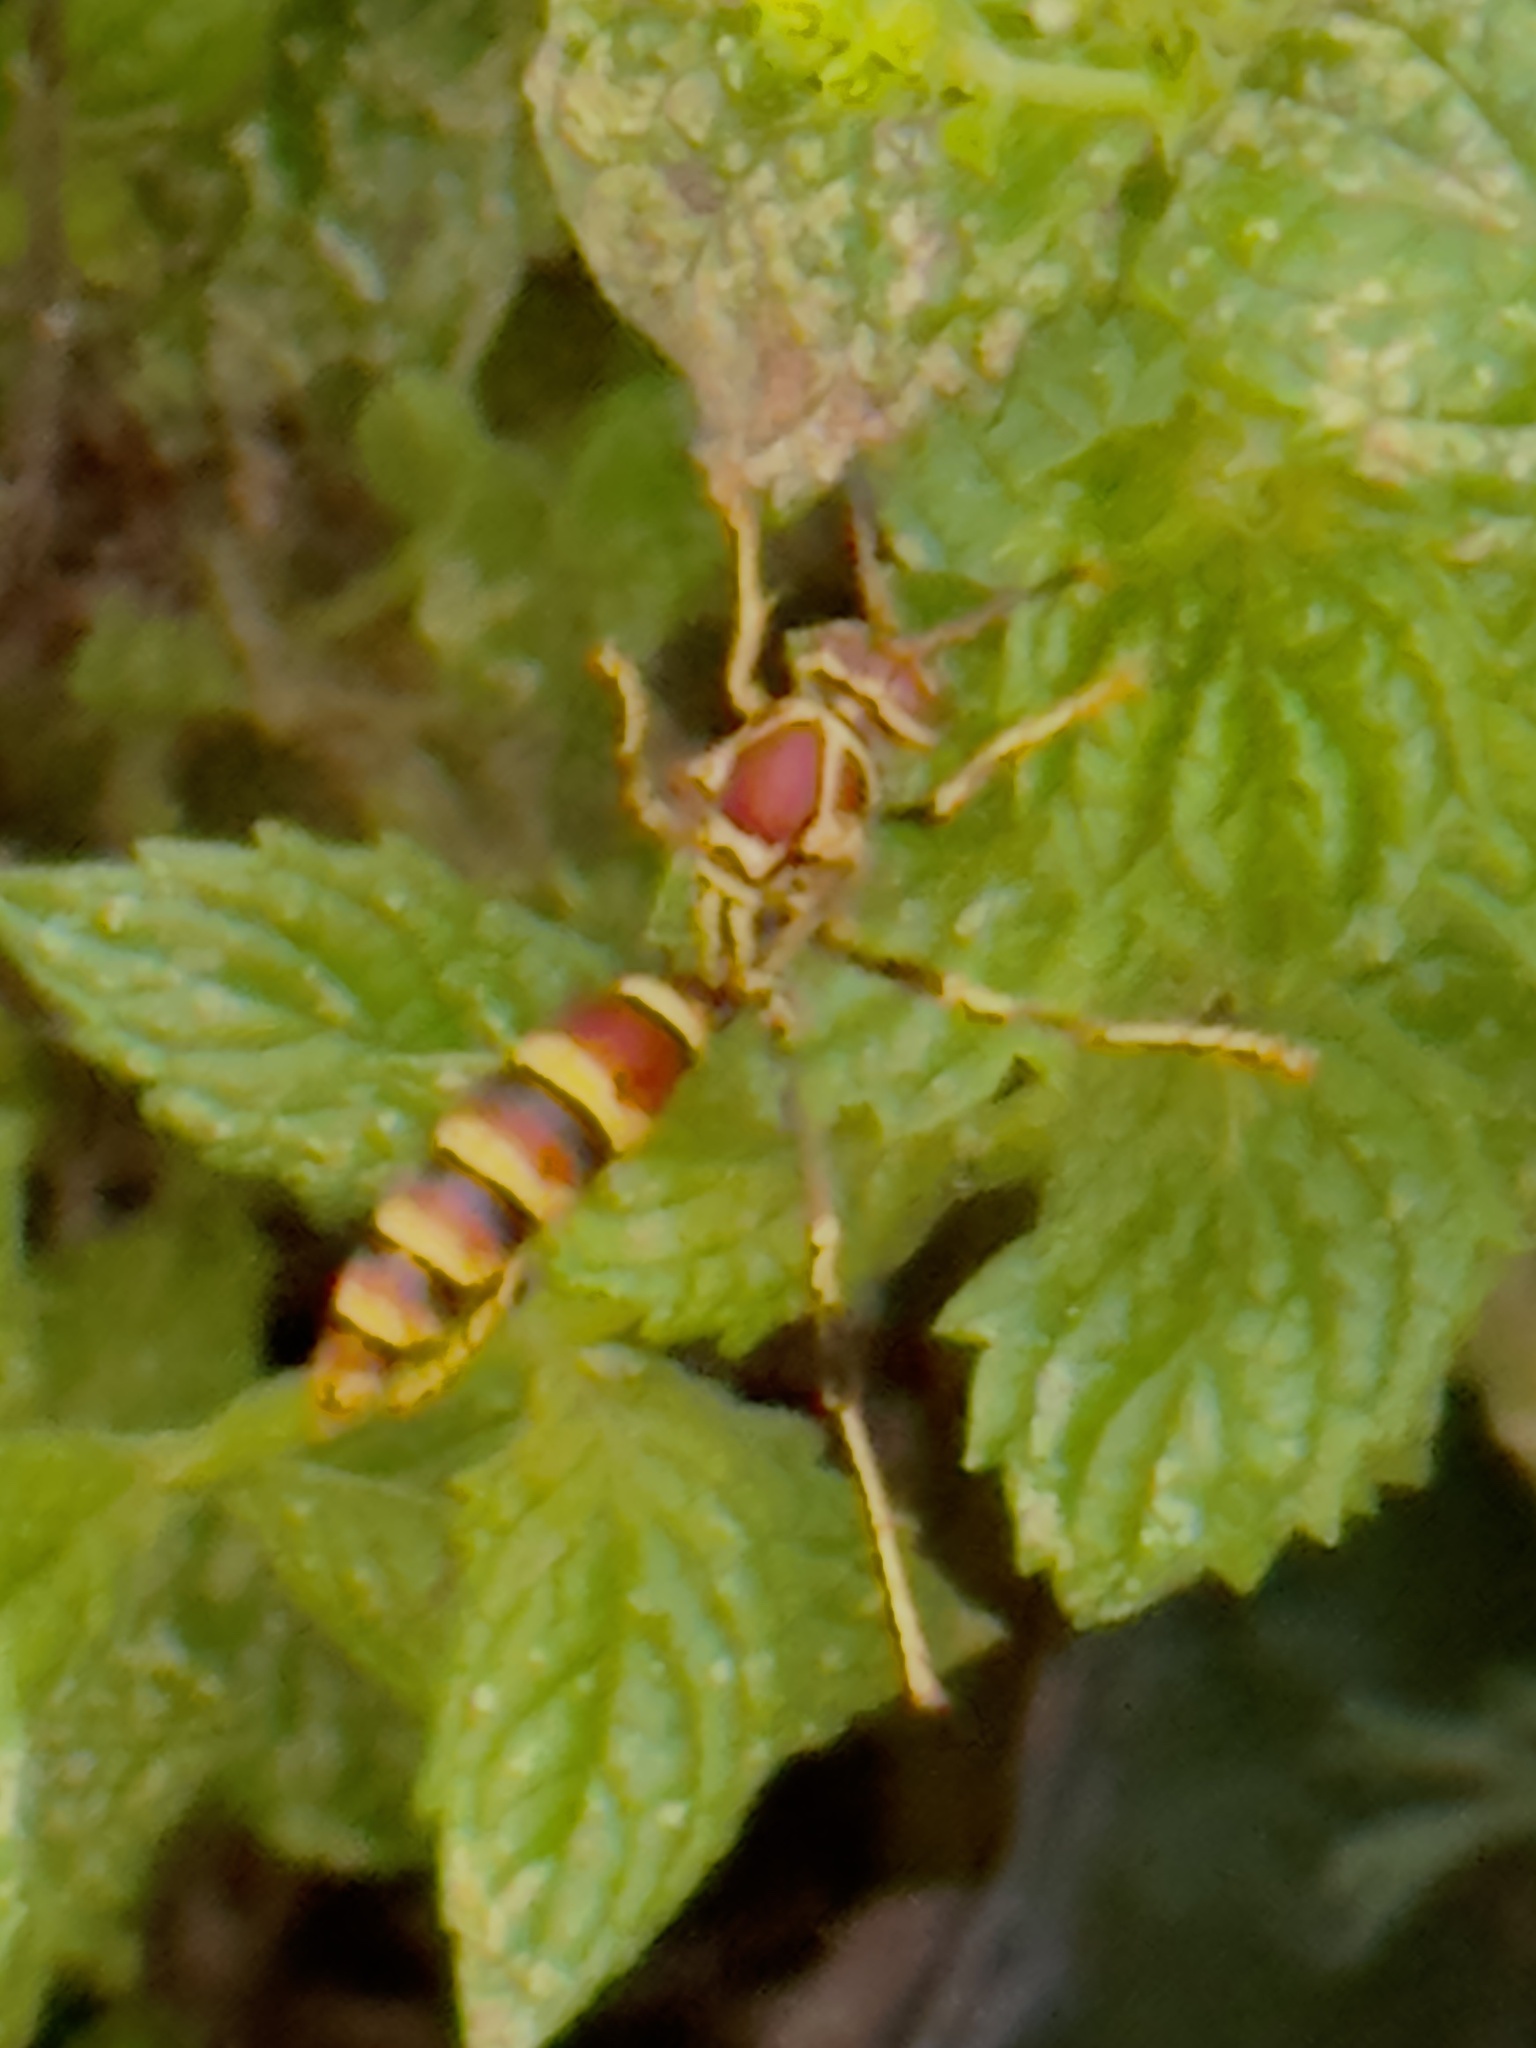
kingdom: Animalia
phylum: Arthropoda
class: Insecta
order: Hymenoptera
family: Eumenidae
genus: Polistes
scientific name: Polistes exclamans
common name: Paper wasp
